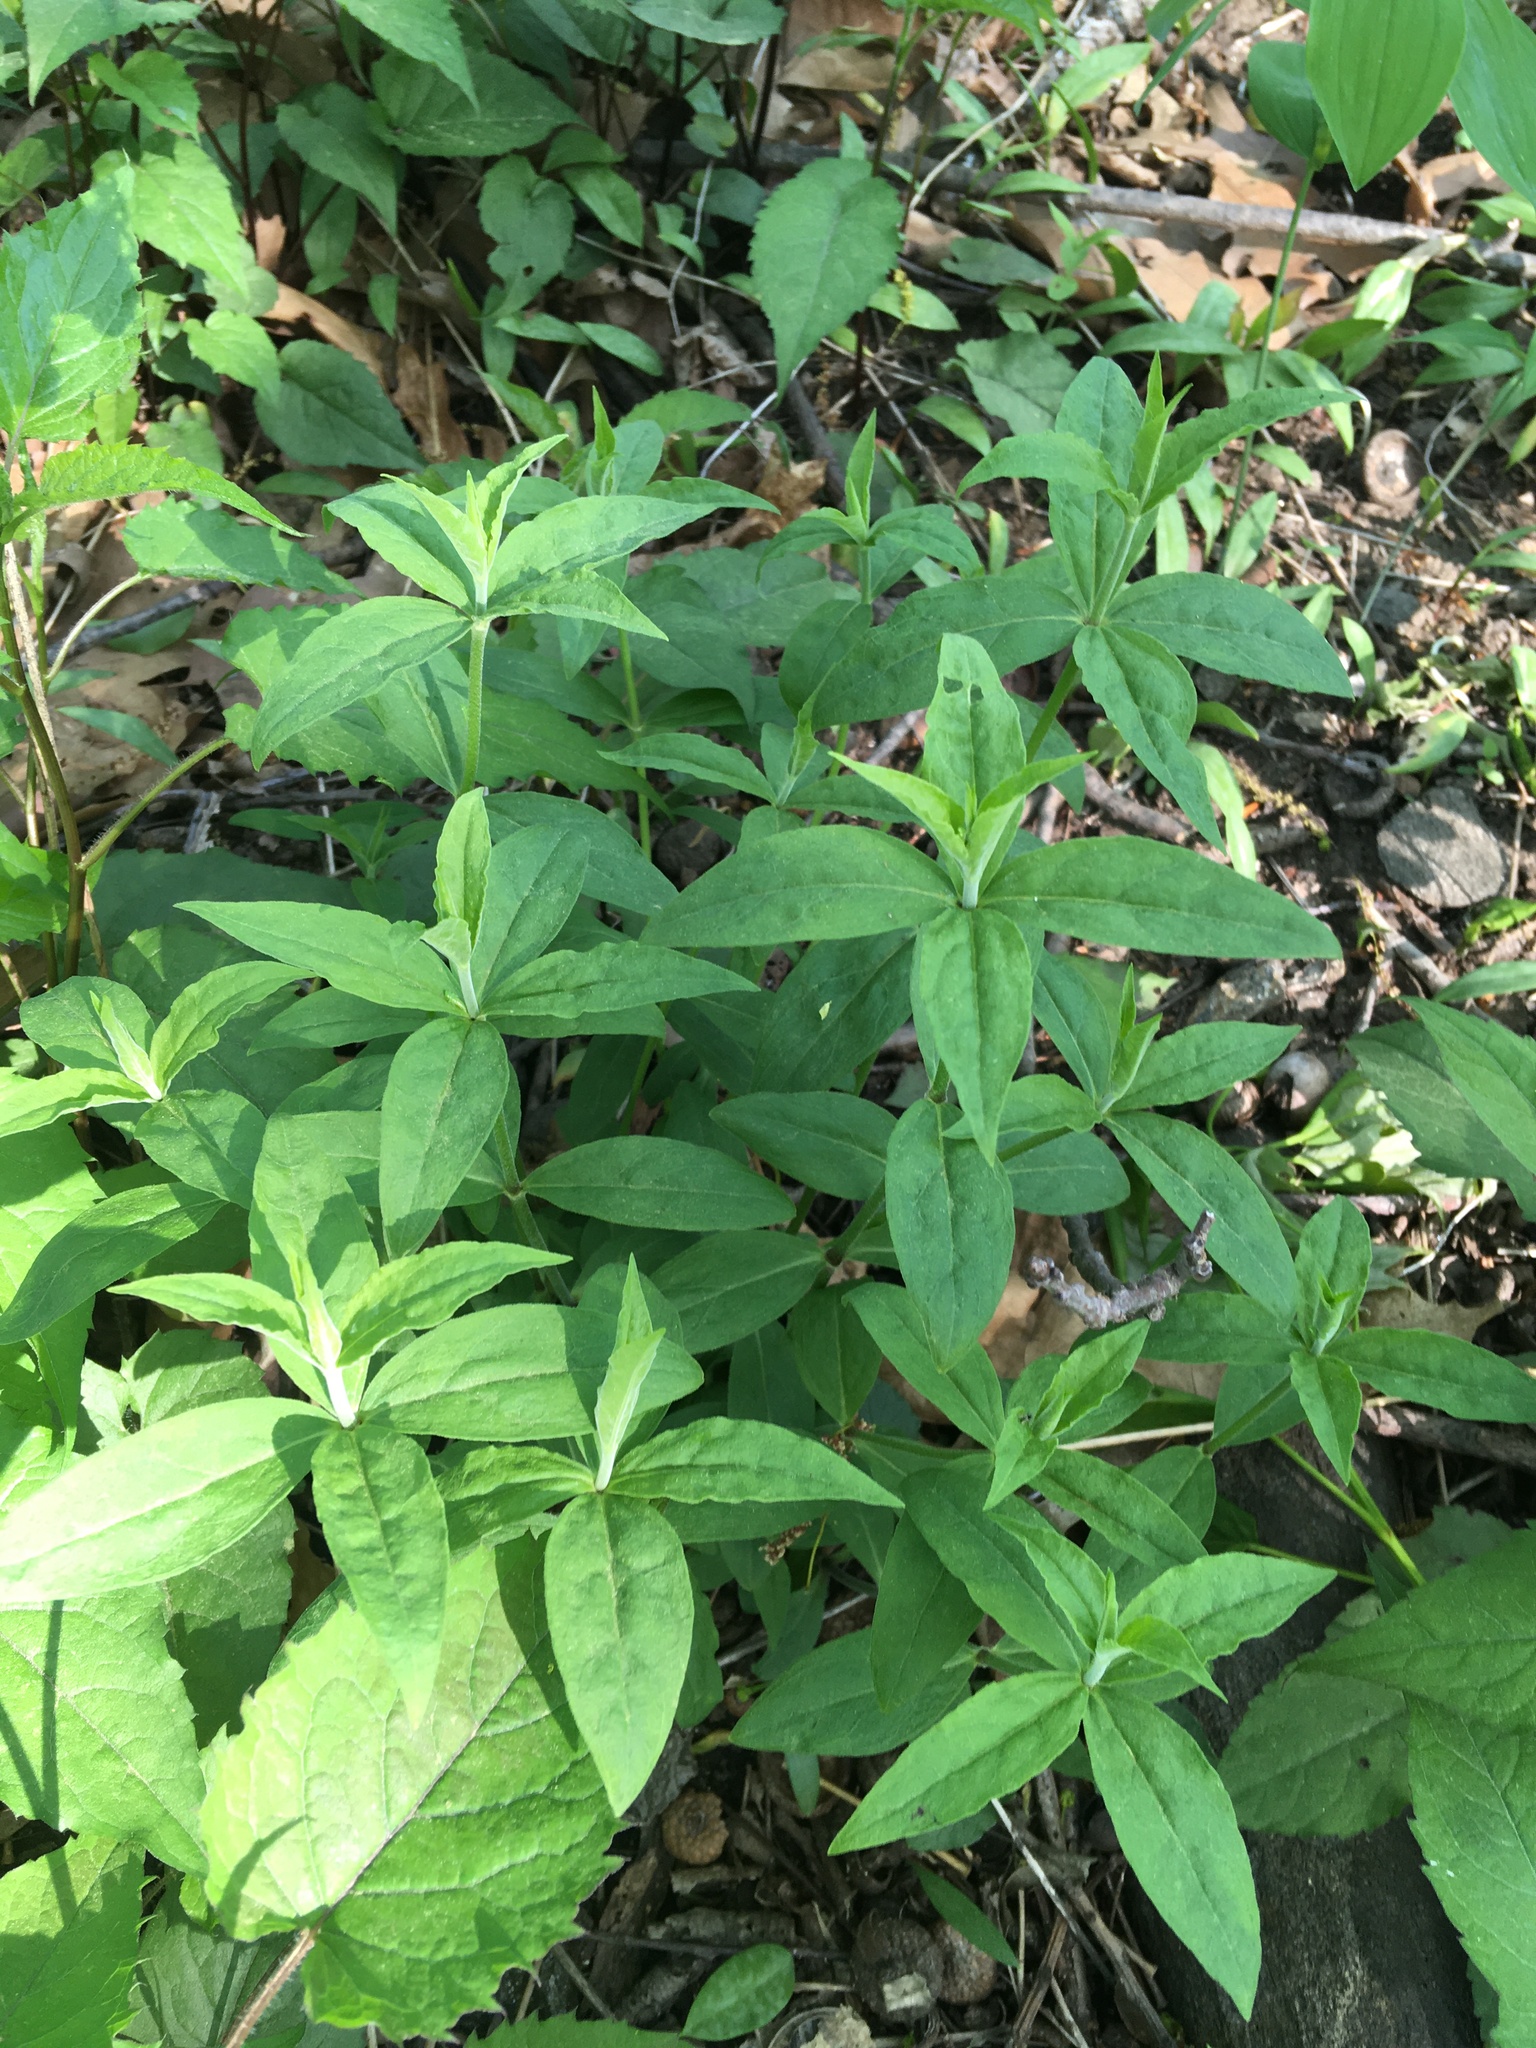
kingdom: Plantae
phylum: Tracheophyta
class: Magnoliopsida
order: Caryophyllales
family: Caryophyllaceae
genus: Silene
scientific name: Silene stellata
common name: Starry campion
